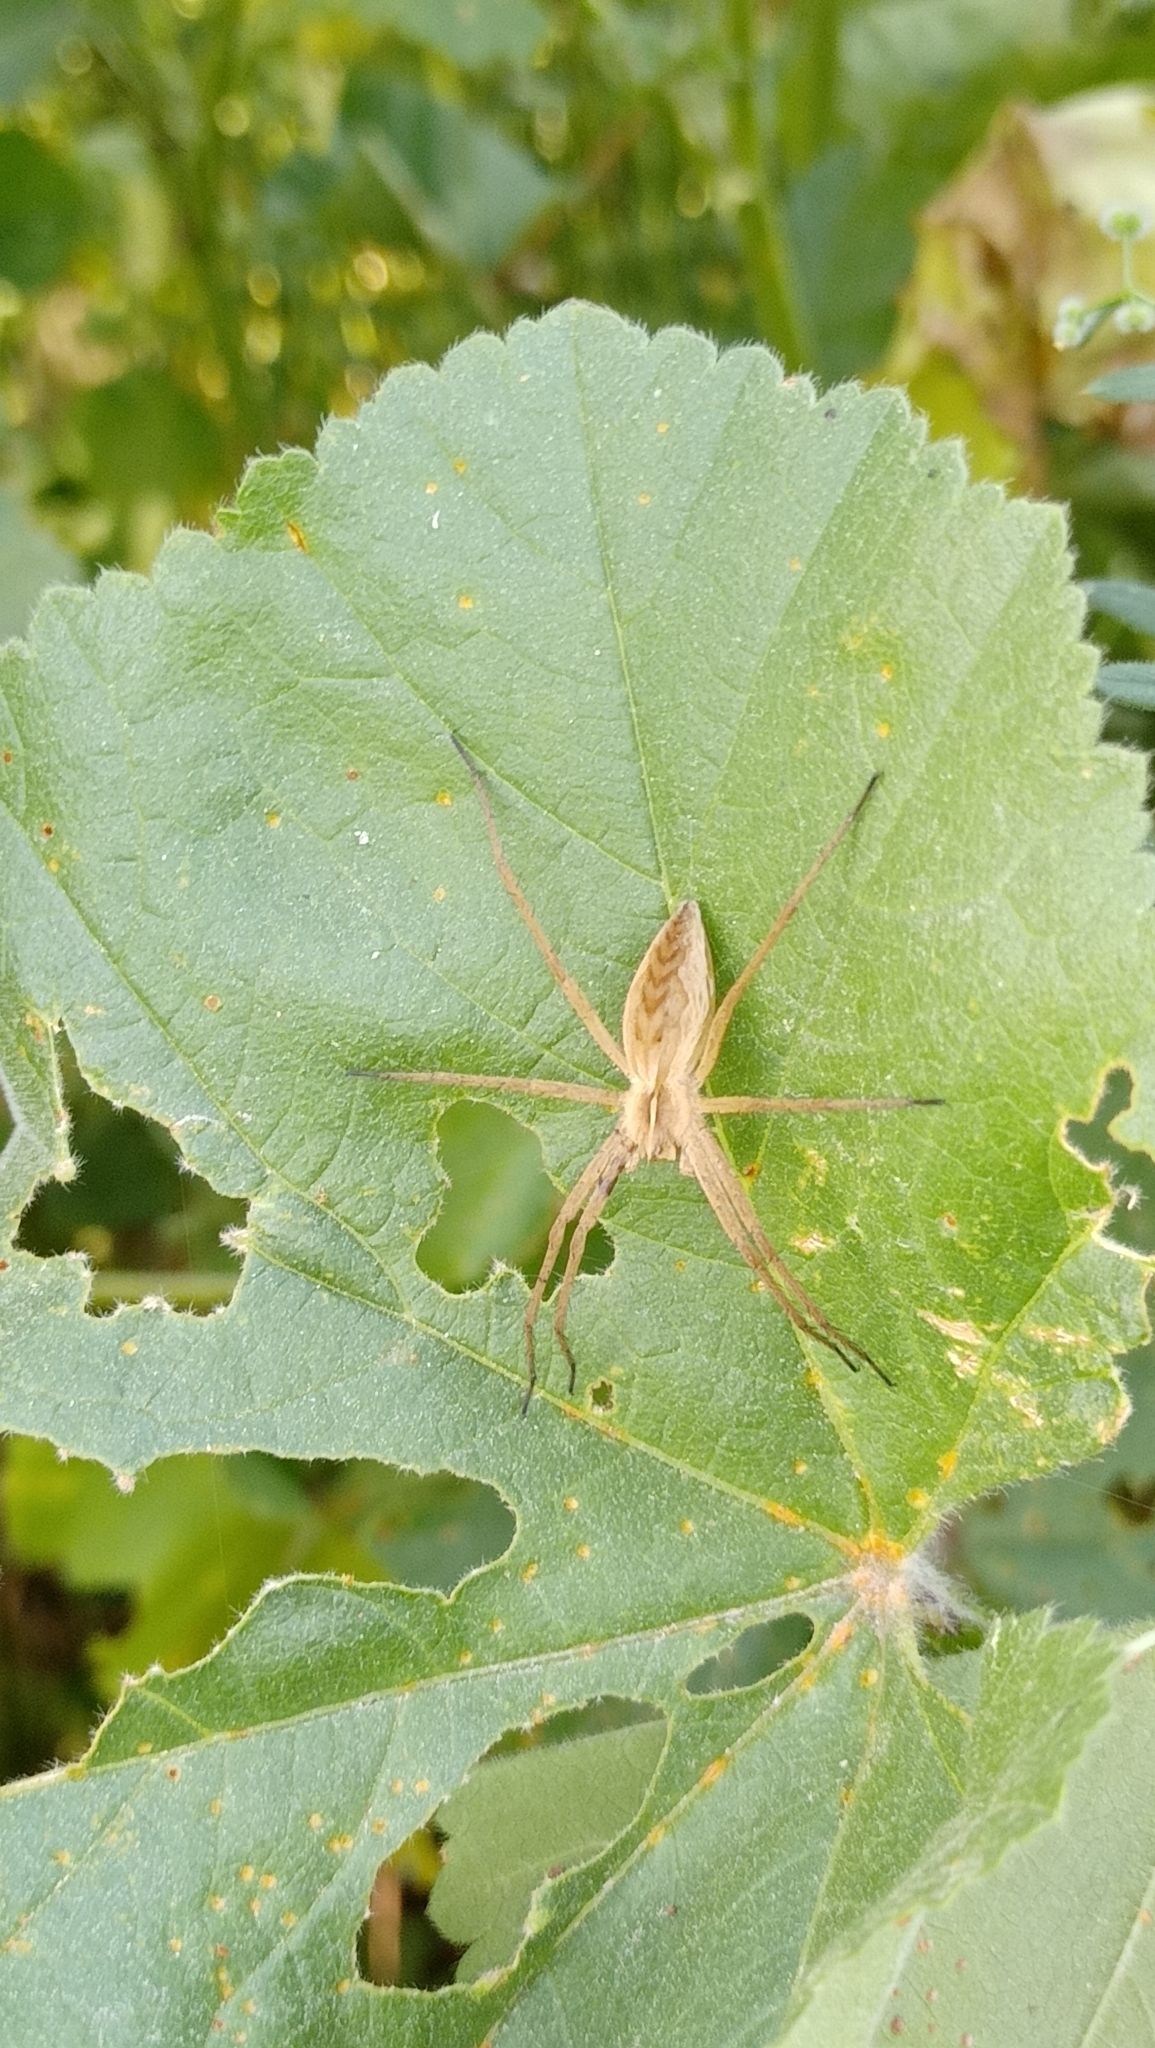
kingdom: Animalia
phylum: Arthropoda
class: Arachnida
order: Araneae
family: Pisauridae
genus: Pisaura
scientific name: Pisaura mirabilis
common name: Tent spider
